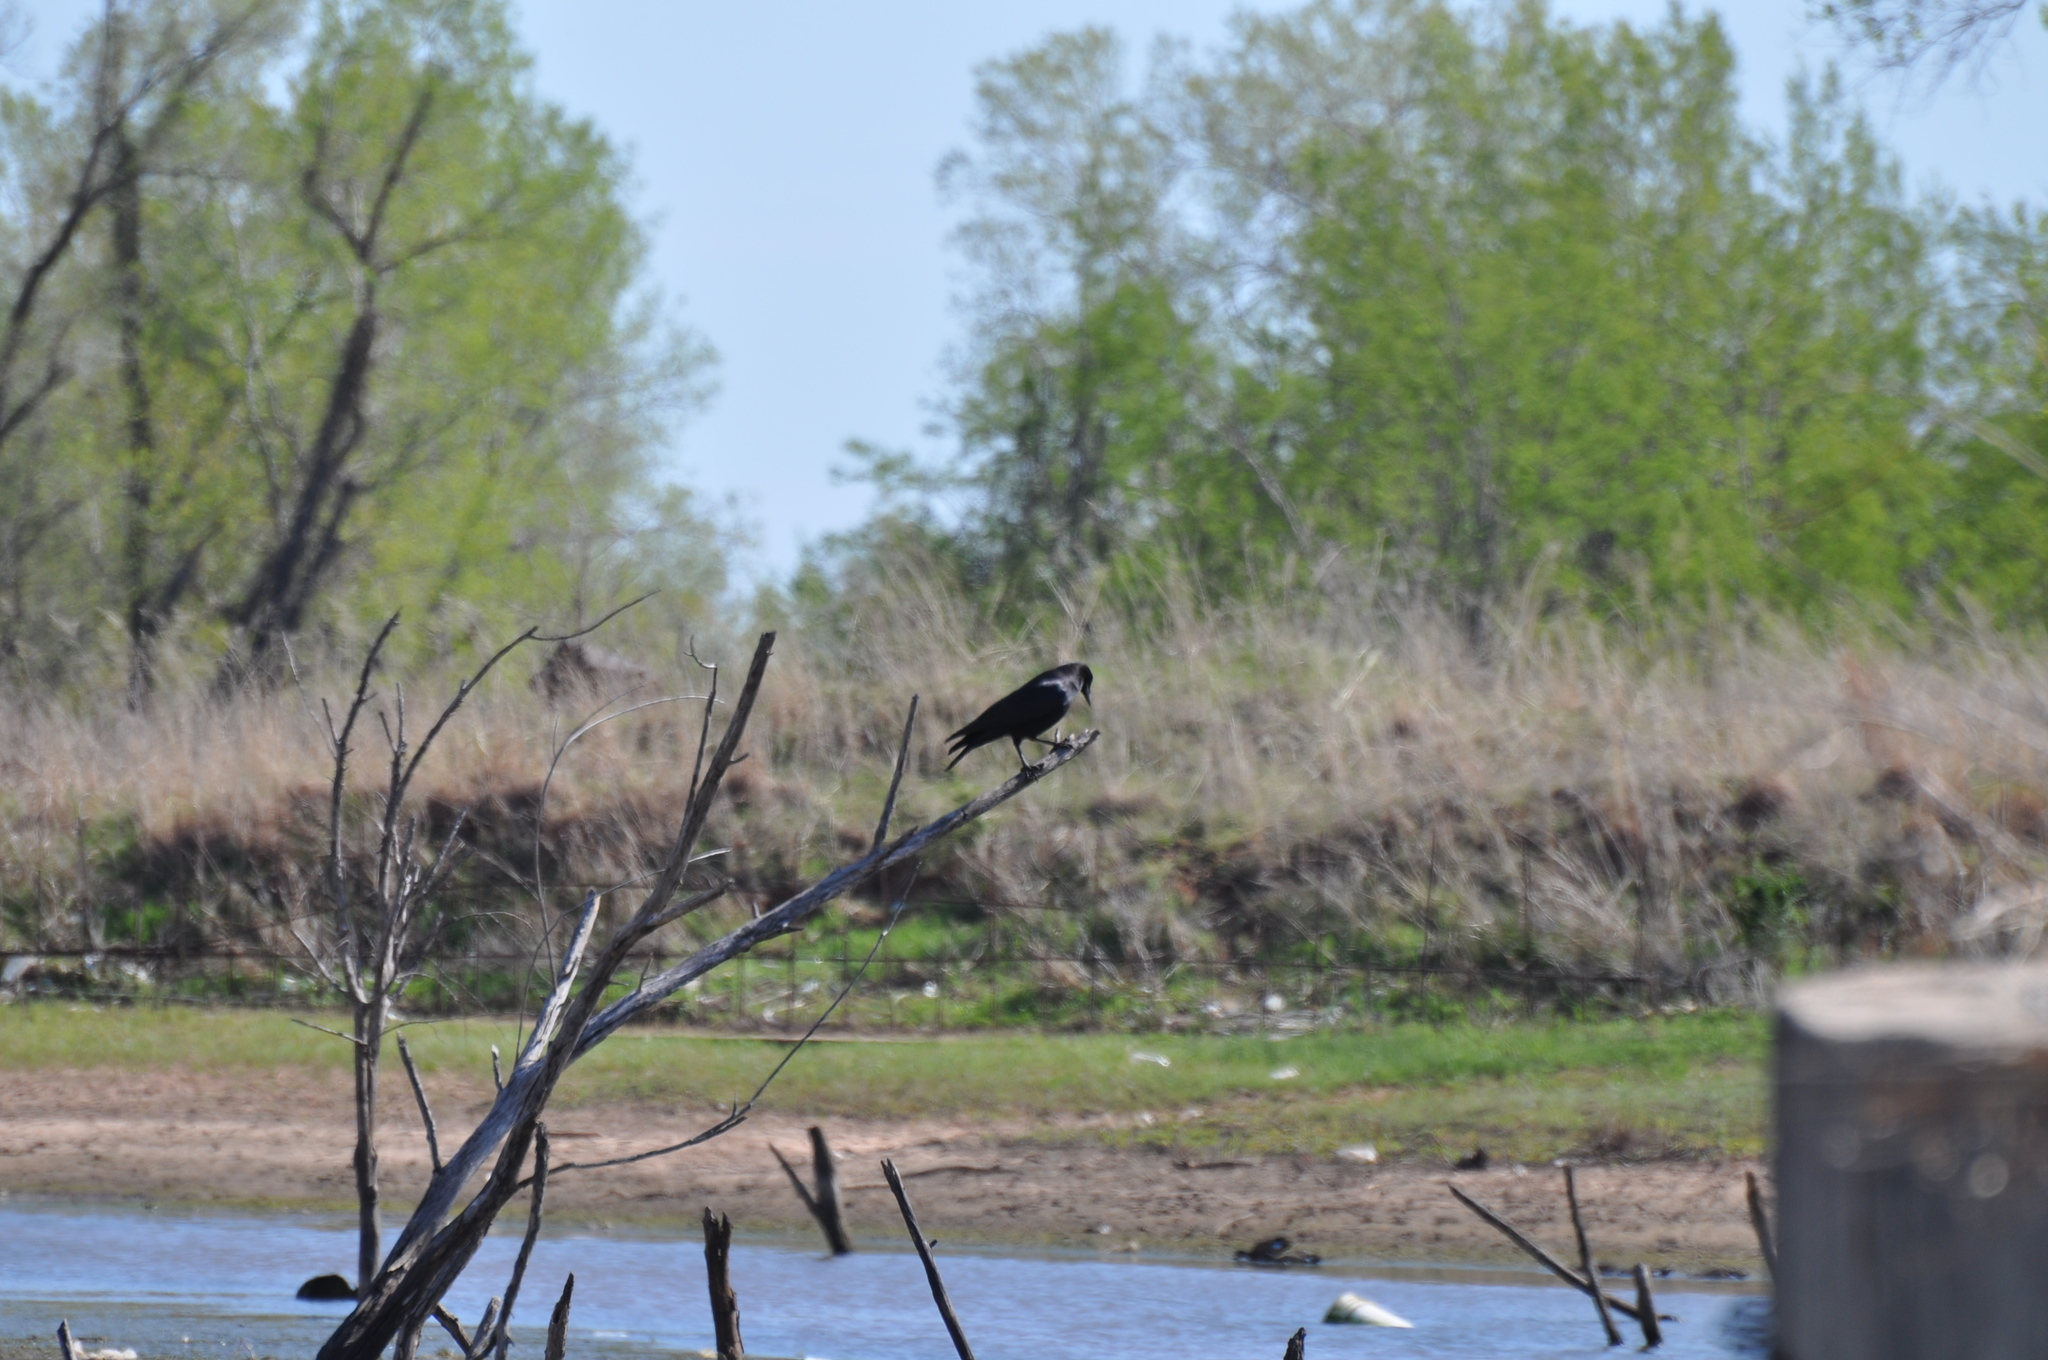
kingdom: Animalia
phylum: Chordata
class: Aves
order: Passeriformes
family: Corvidae
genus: Corvus
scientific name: Corvus brachyrhynchos
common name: American crow
